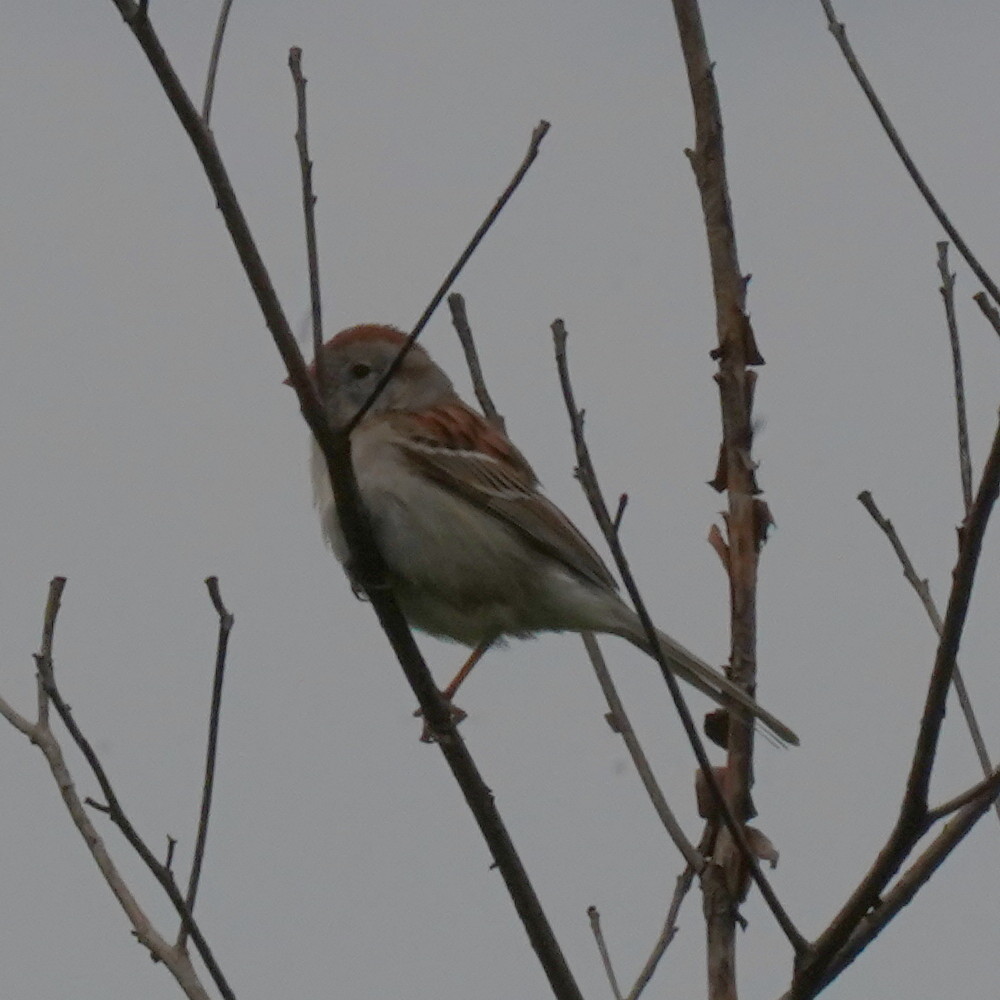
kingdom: Animalia
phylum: Chordata
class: Aves
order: Passeriformes
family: Passerellidae
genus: Spizella
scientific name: Spizella pusilla
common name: Field sparrow
